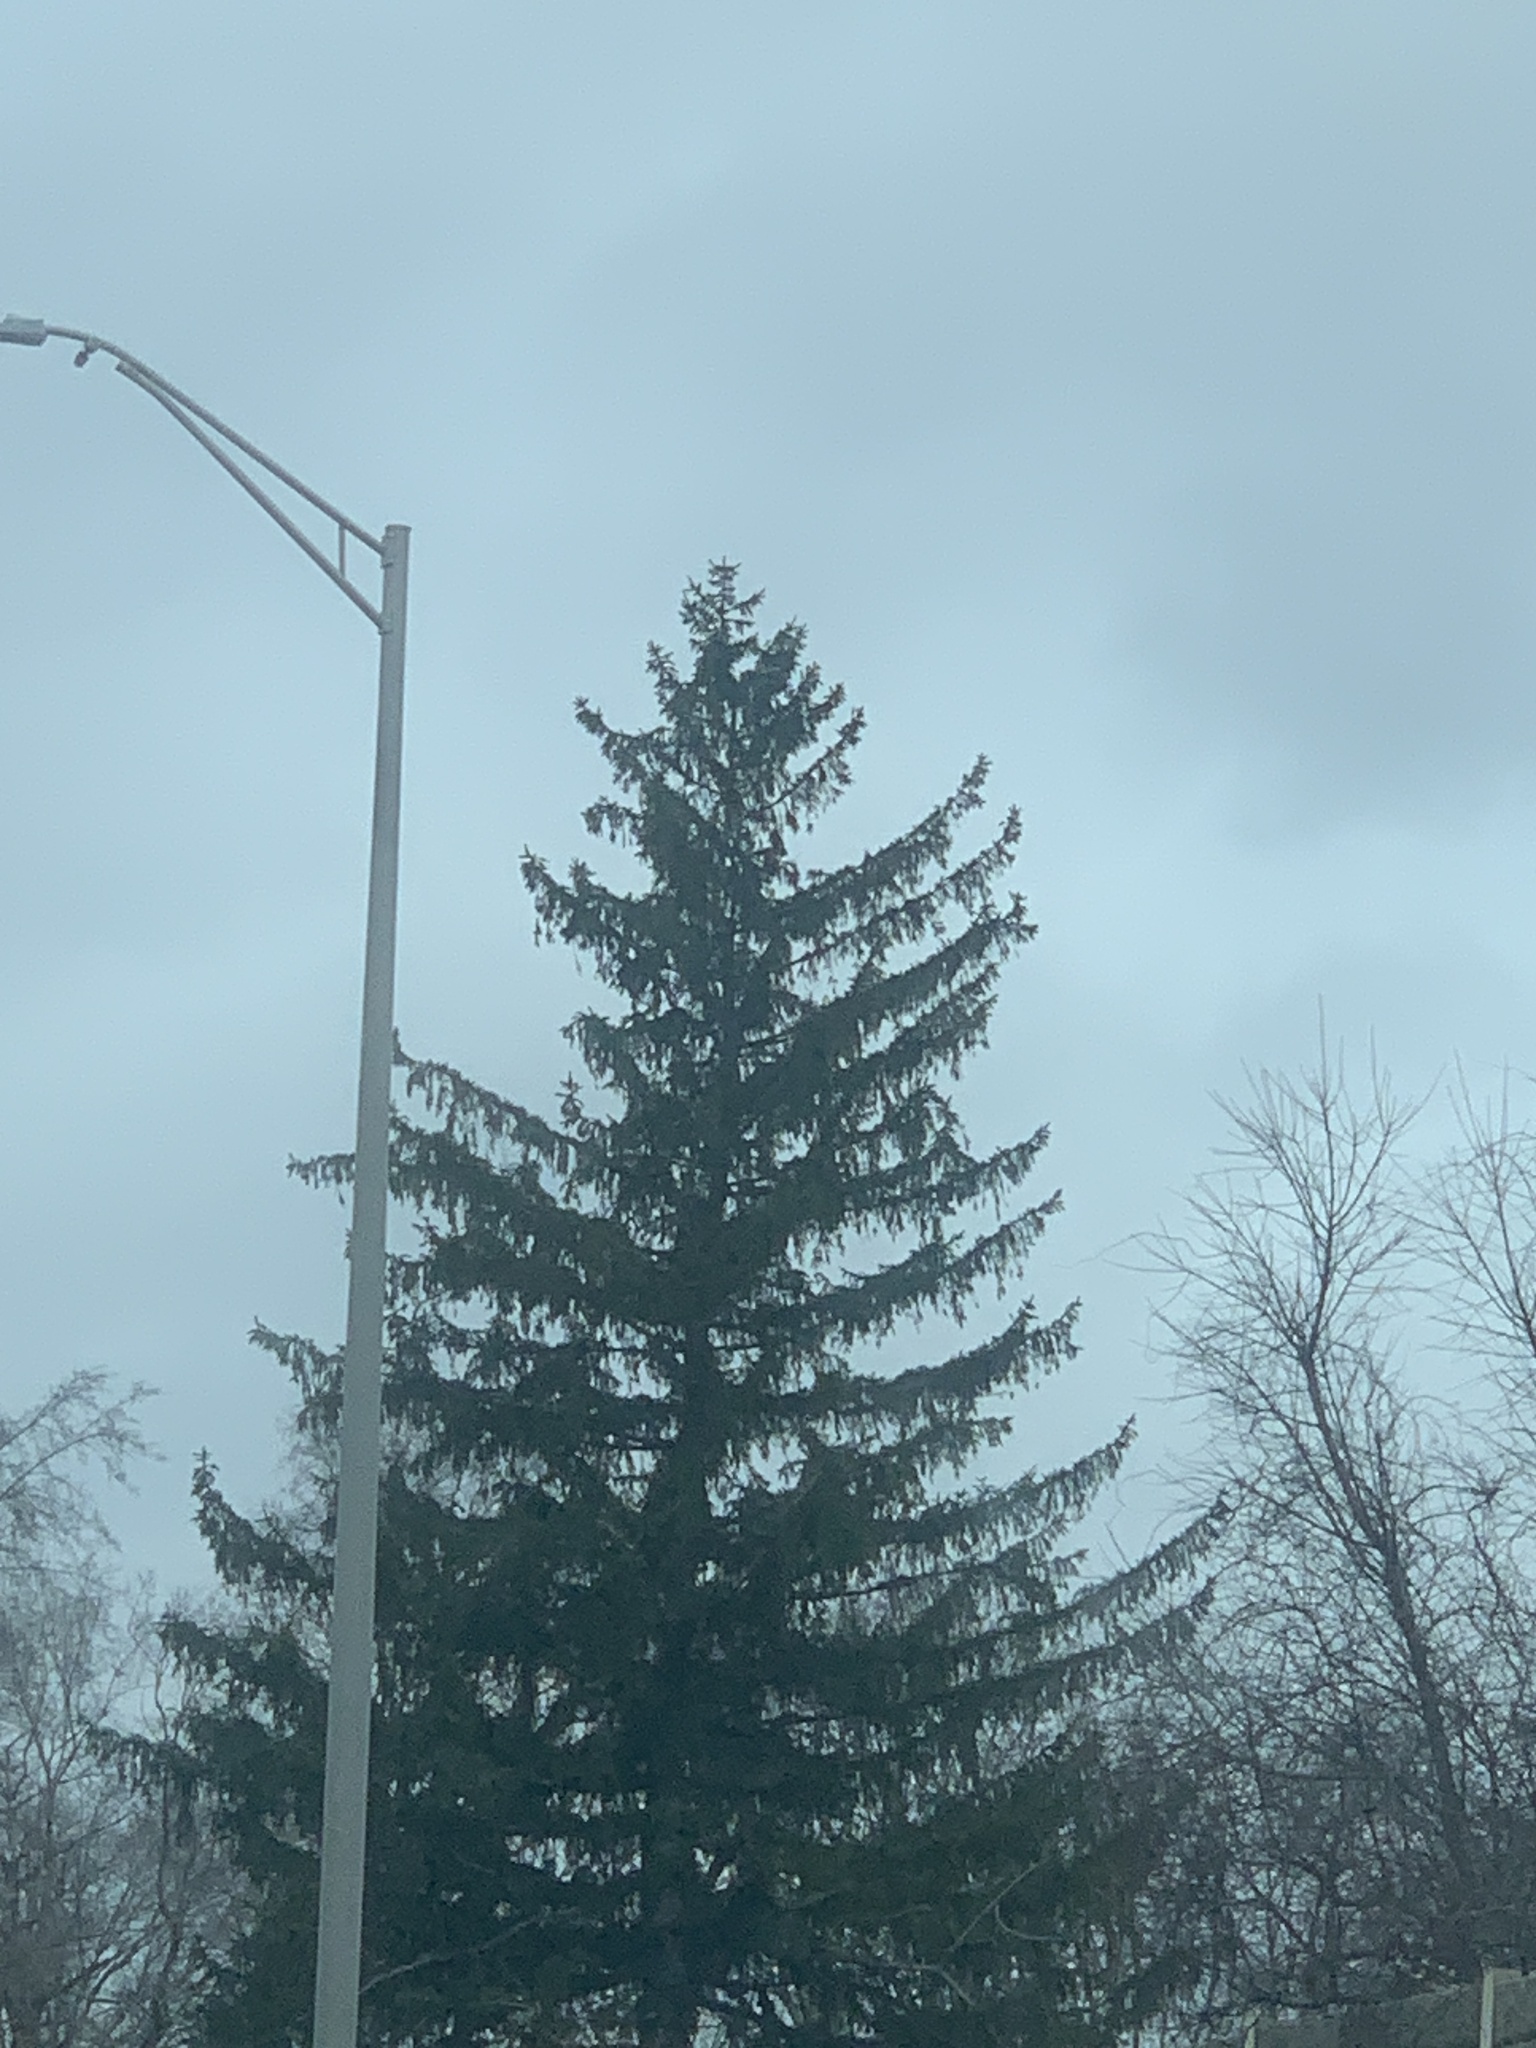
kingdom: Plantae
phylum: Tracheophyta
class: Pinopsida
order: Pinales
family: Pinaceae
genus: Picea
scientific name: Picea abies
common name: Norway spruce
